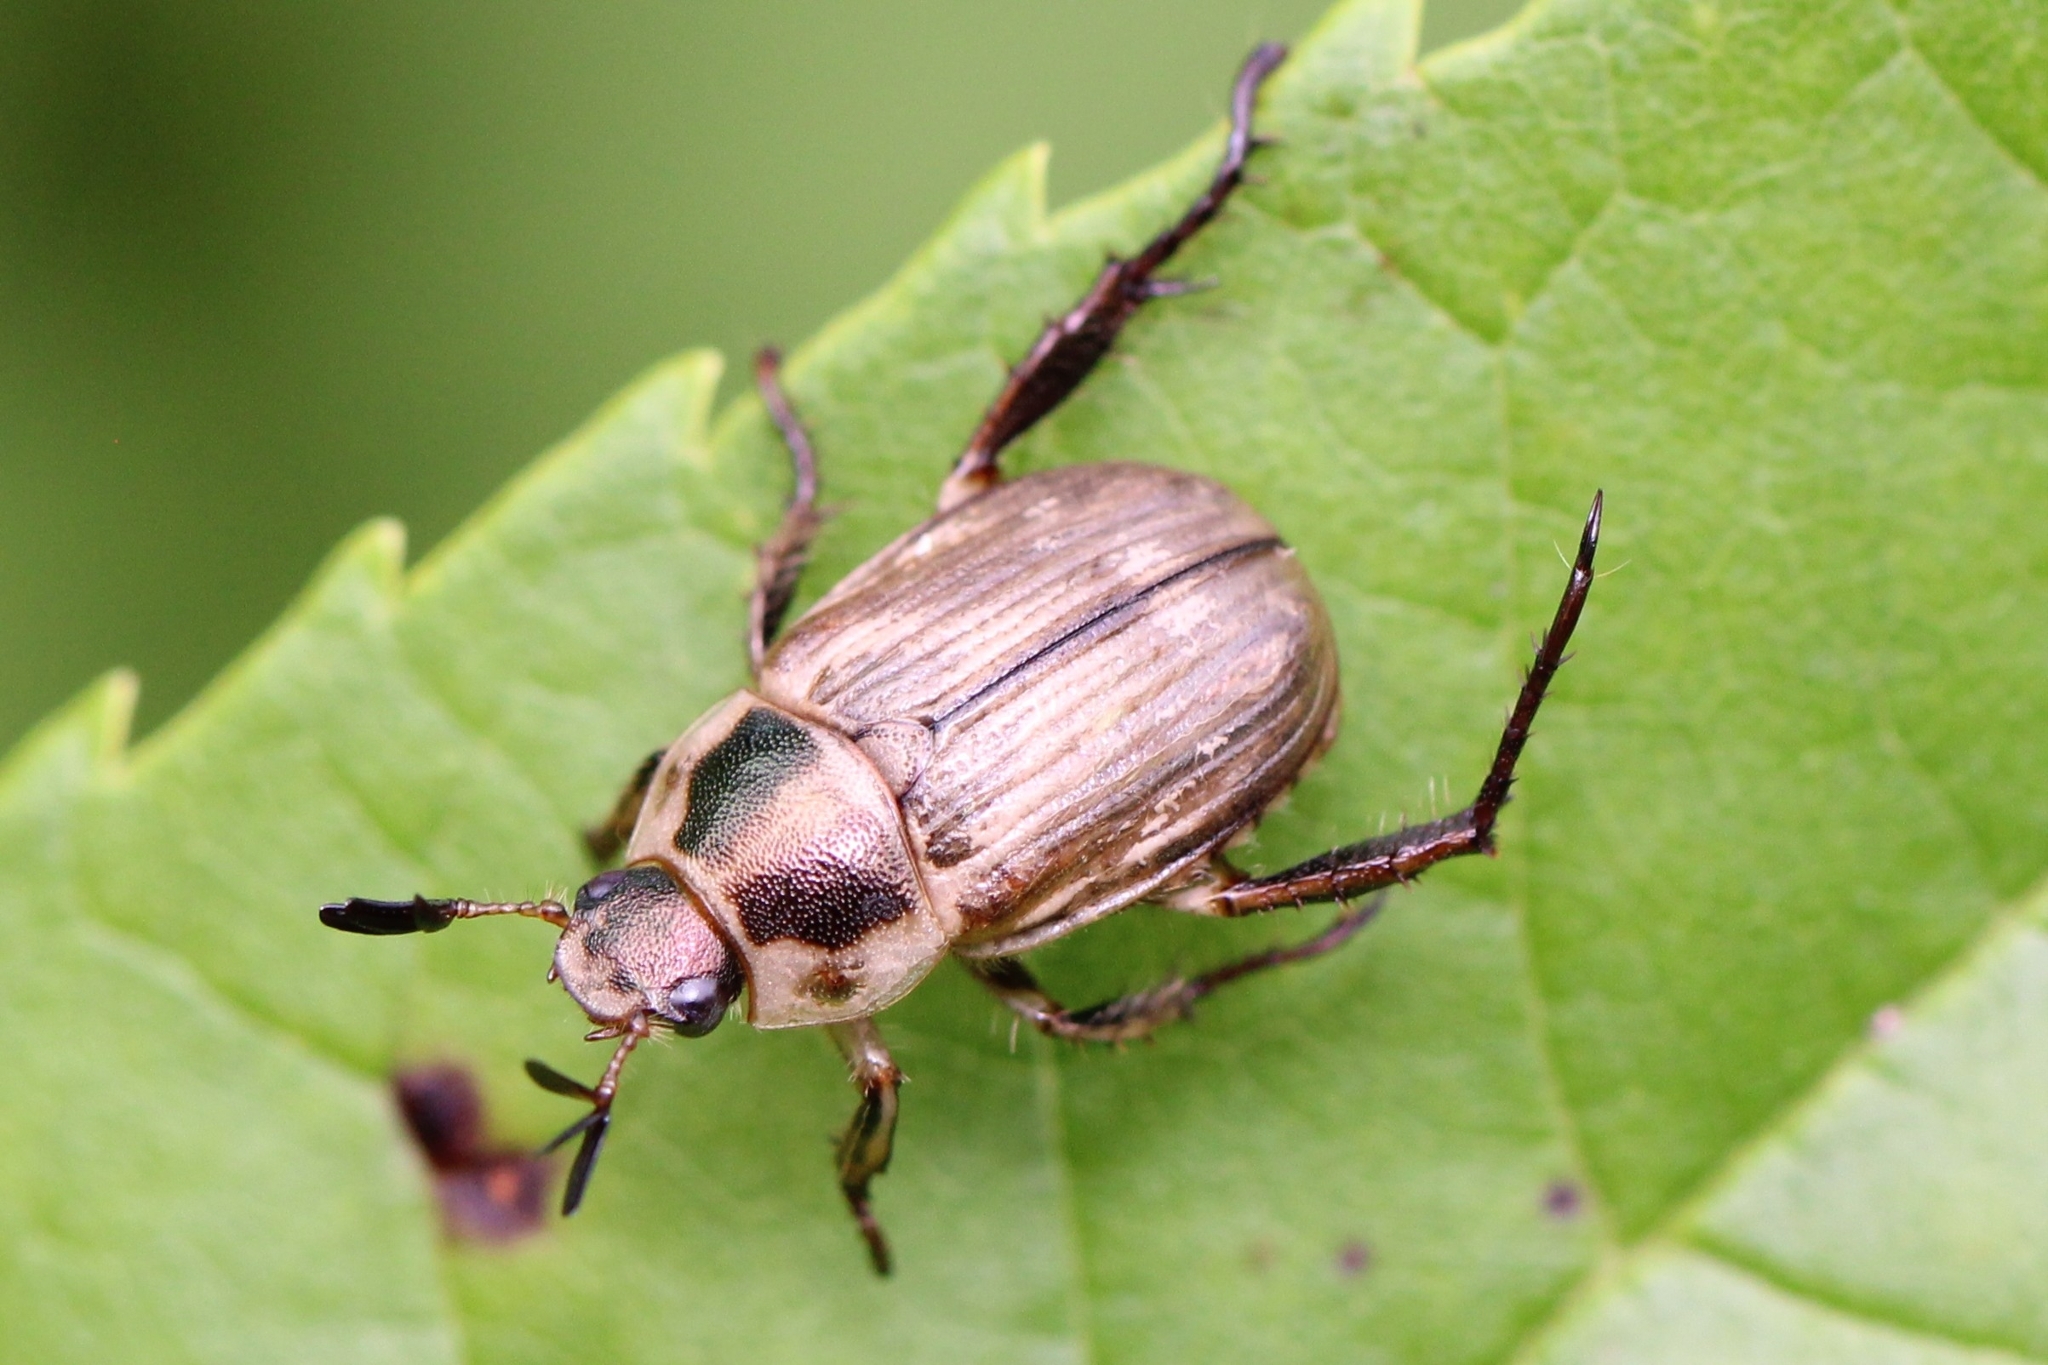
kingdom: Animalia
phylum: Arthropoda
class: Insecta
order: Coleoptera
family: Scarabaeidae
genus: Exomala
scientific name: Exomala orientalis
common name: Oriental beetle
